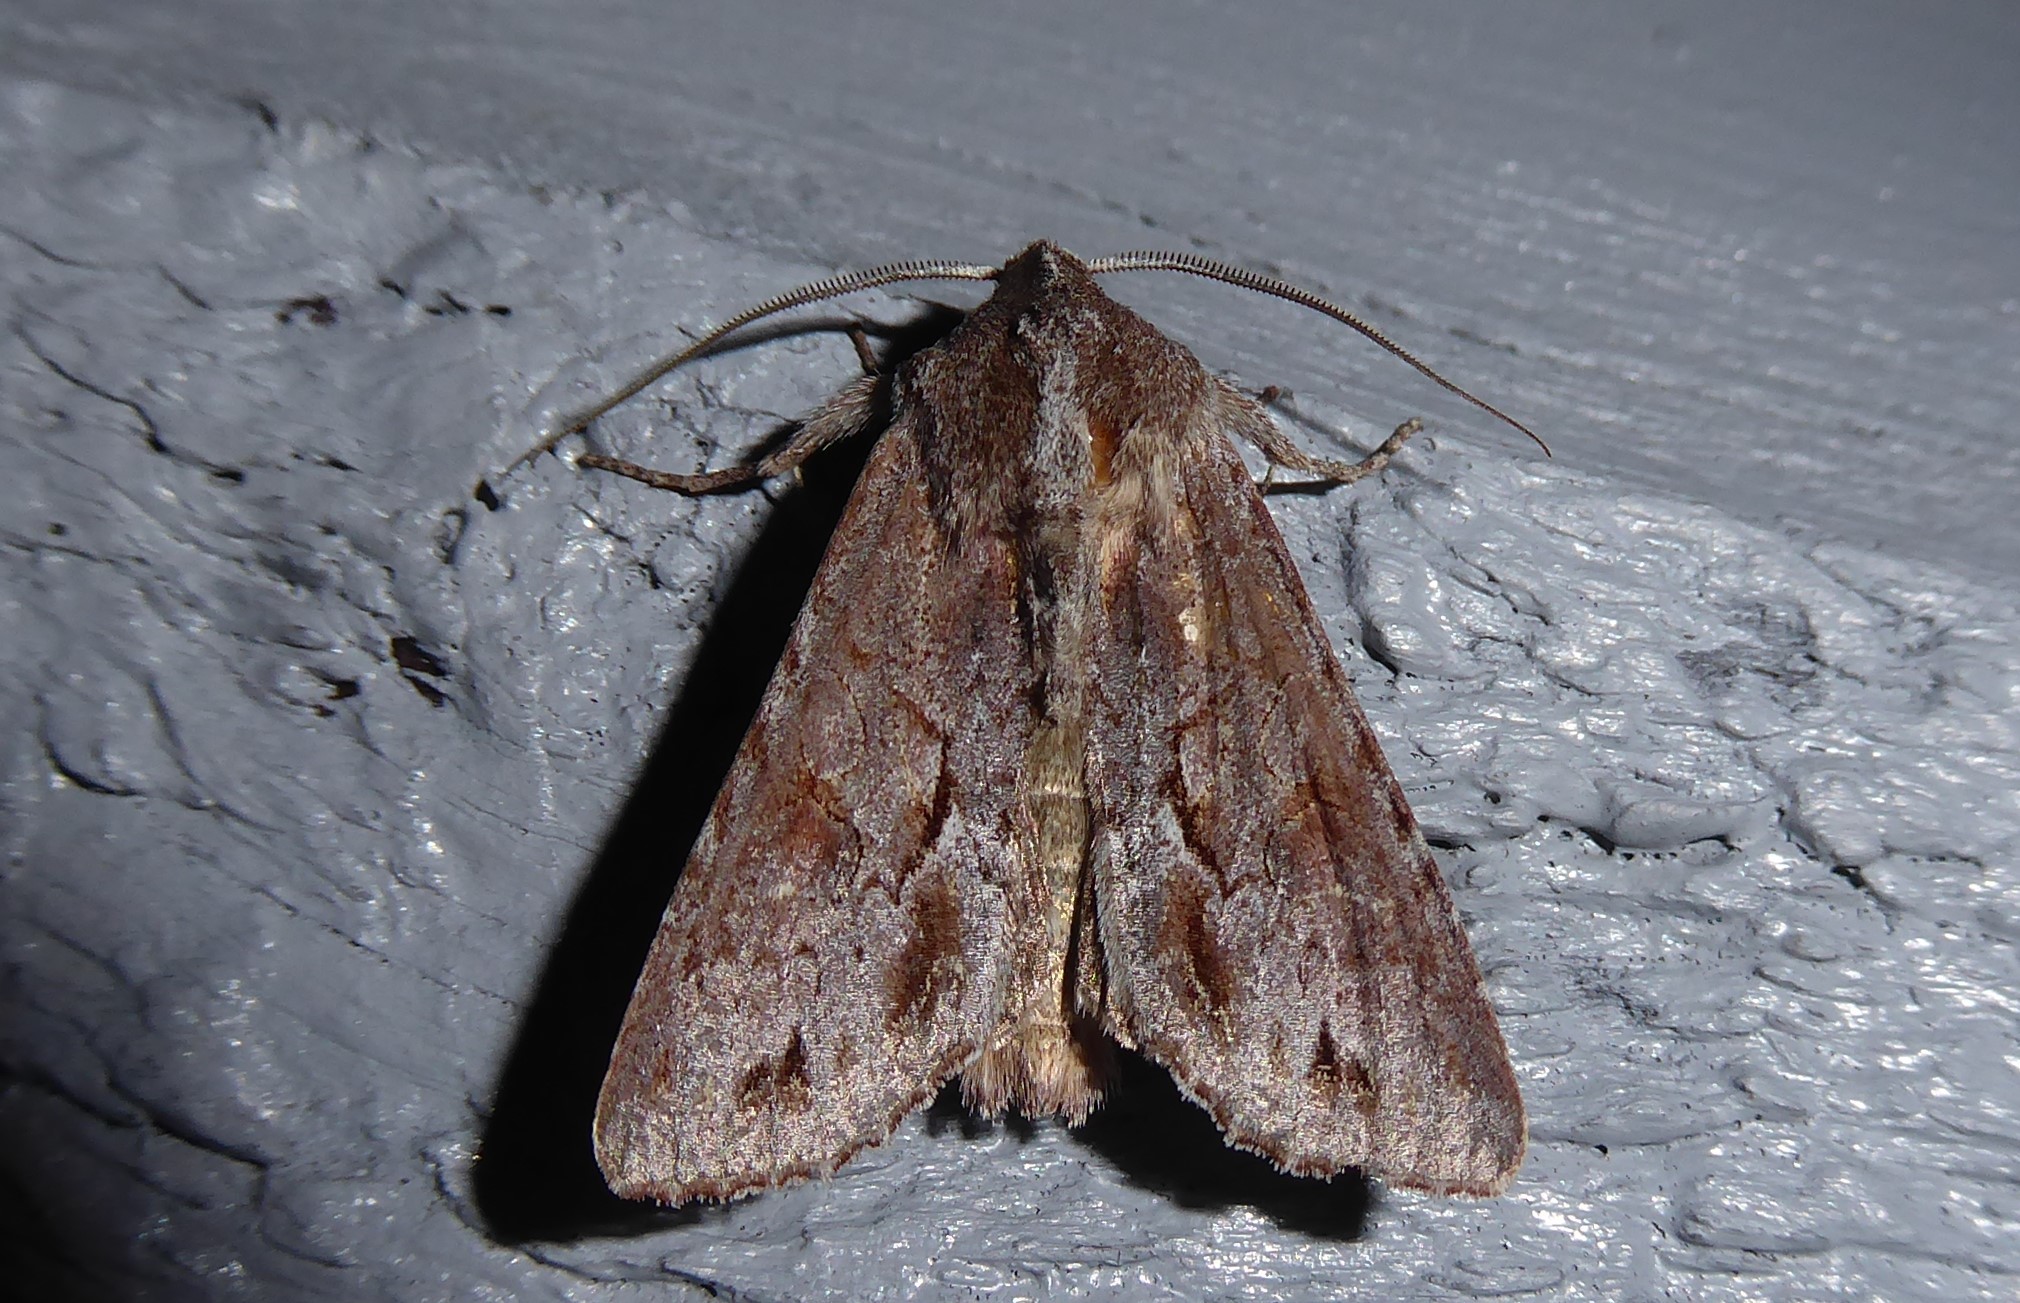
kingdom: Animalia
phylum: Arthropoda
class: Insecta
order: Lepidoptera
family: Noctuidae
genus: Ichneutica
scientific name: Ichneutica
